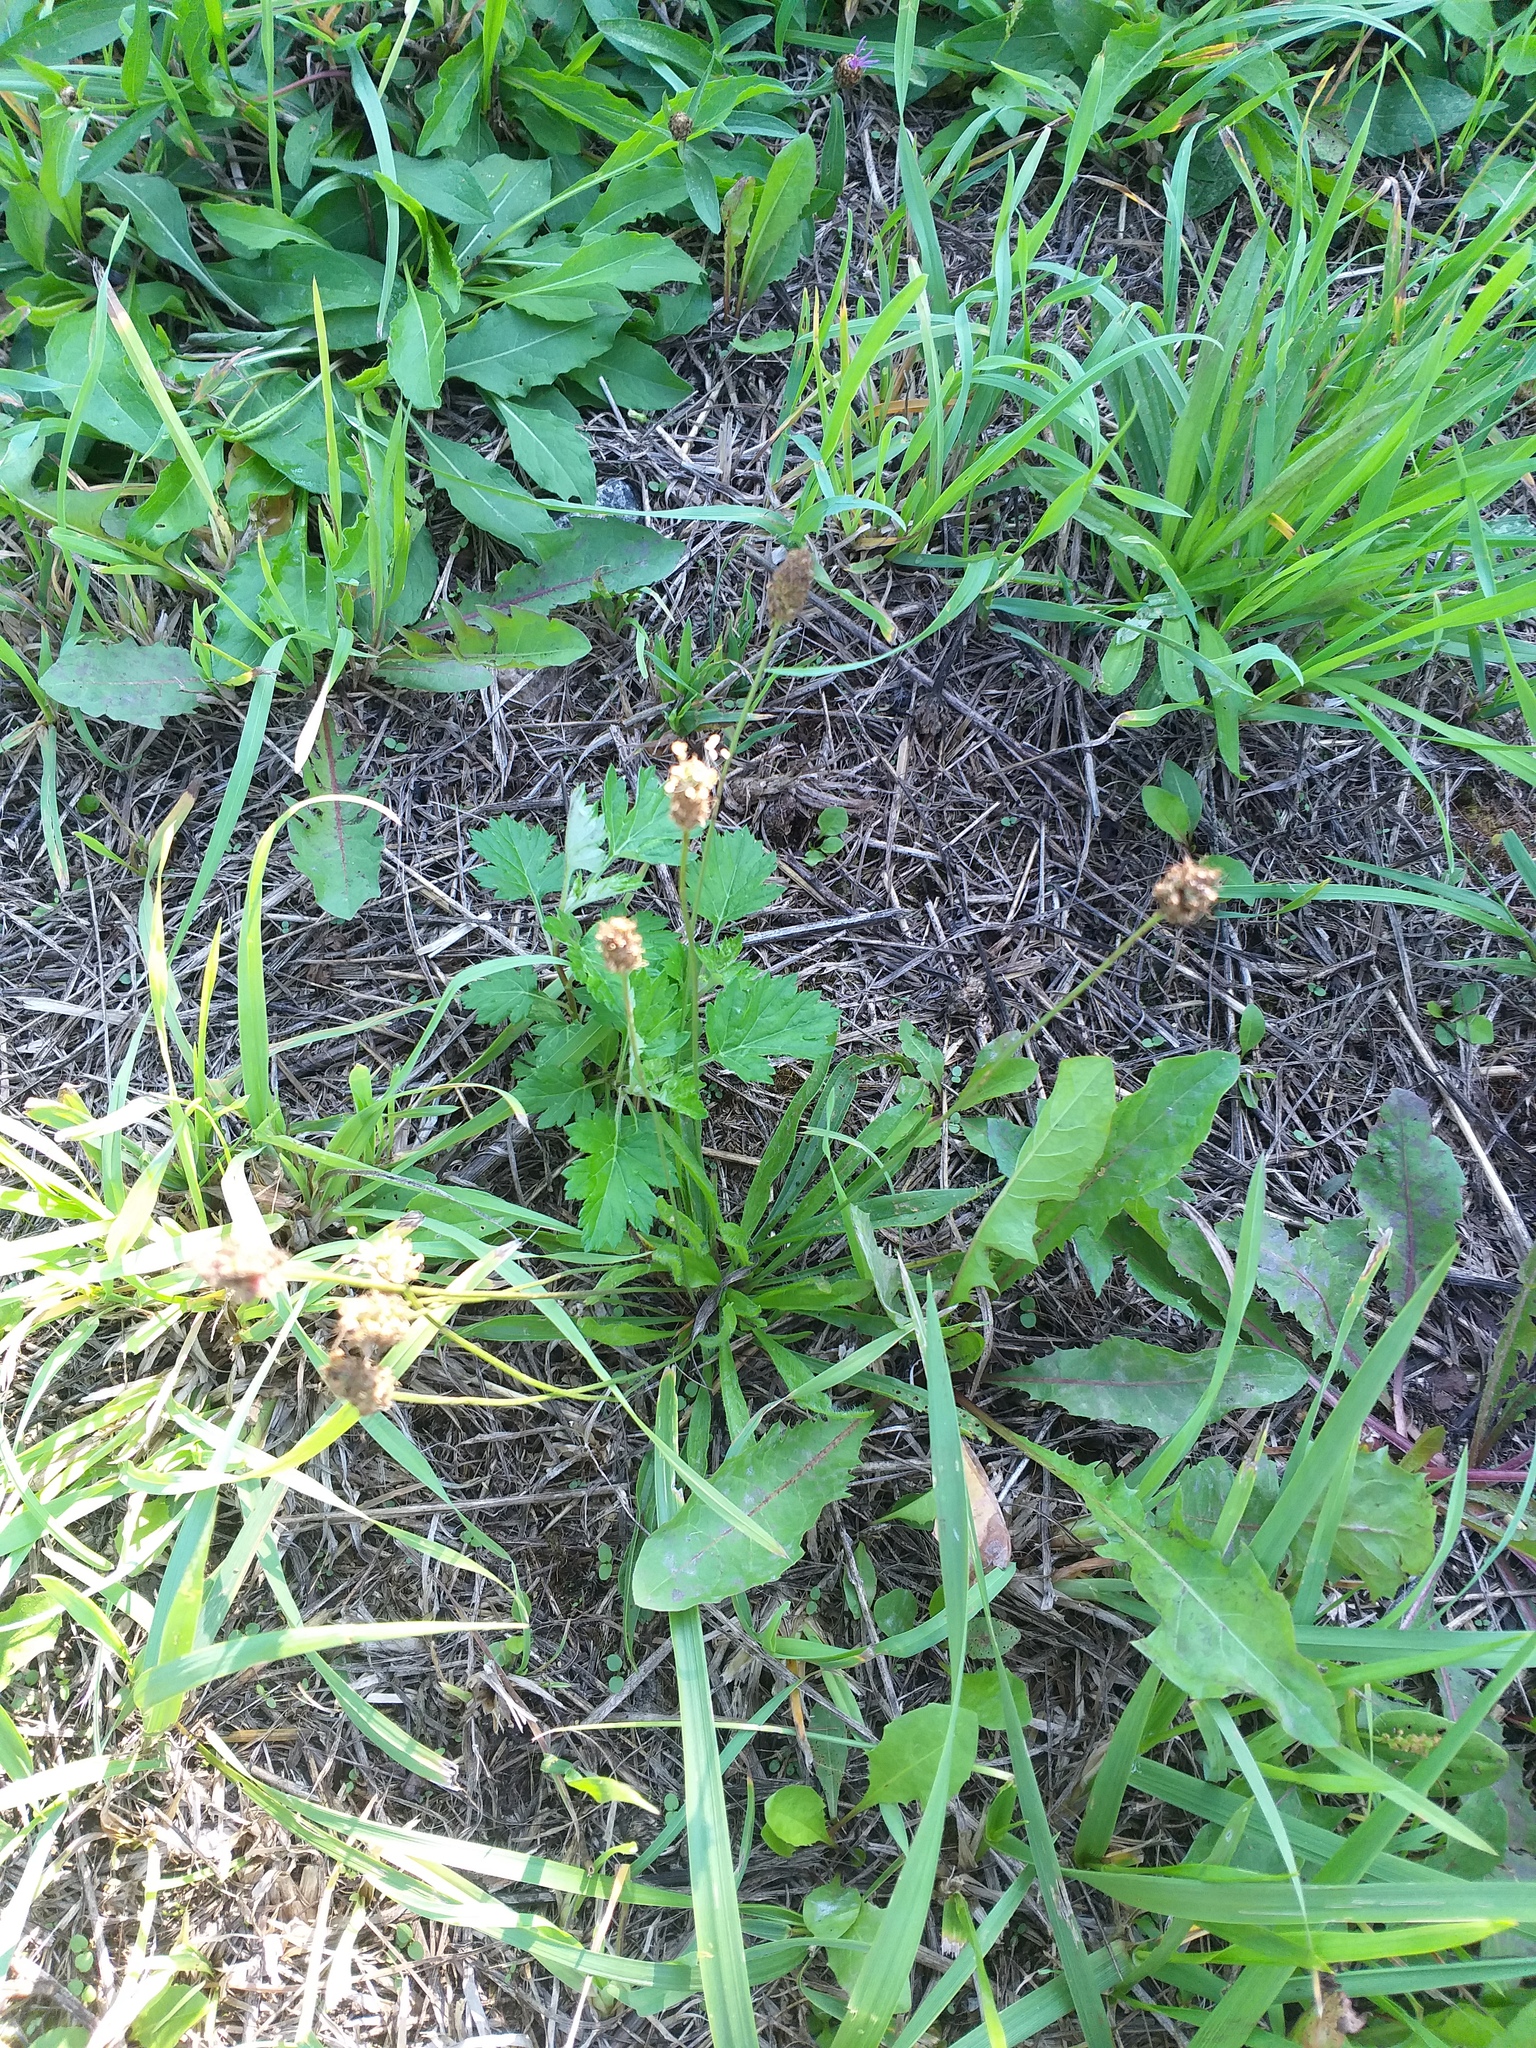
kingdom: Plantae
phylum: Tracheophyta
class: Magnoliopsida
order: Lamiales
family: Plantaginaceae
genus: Plantago
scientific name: Plantago lanceolata
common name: Ribwort plantain
